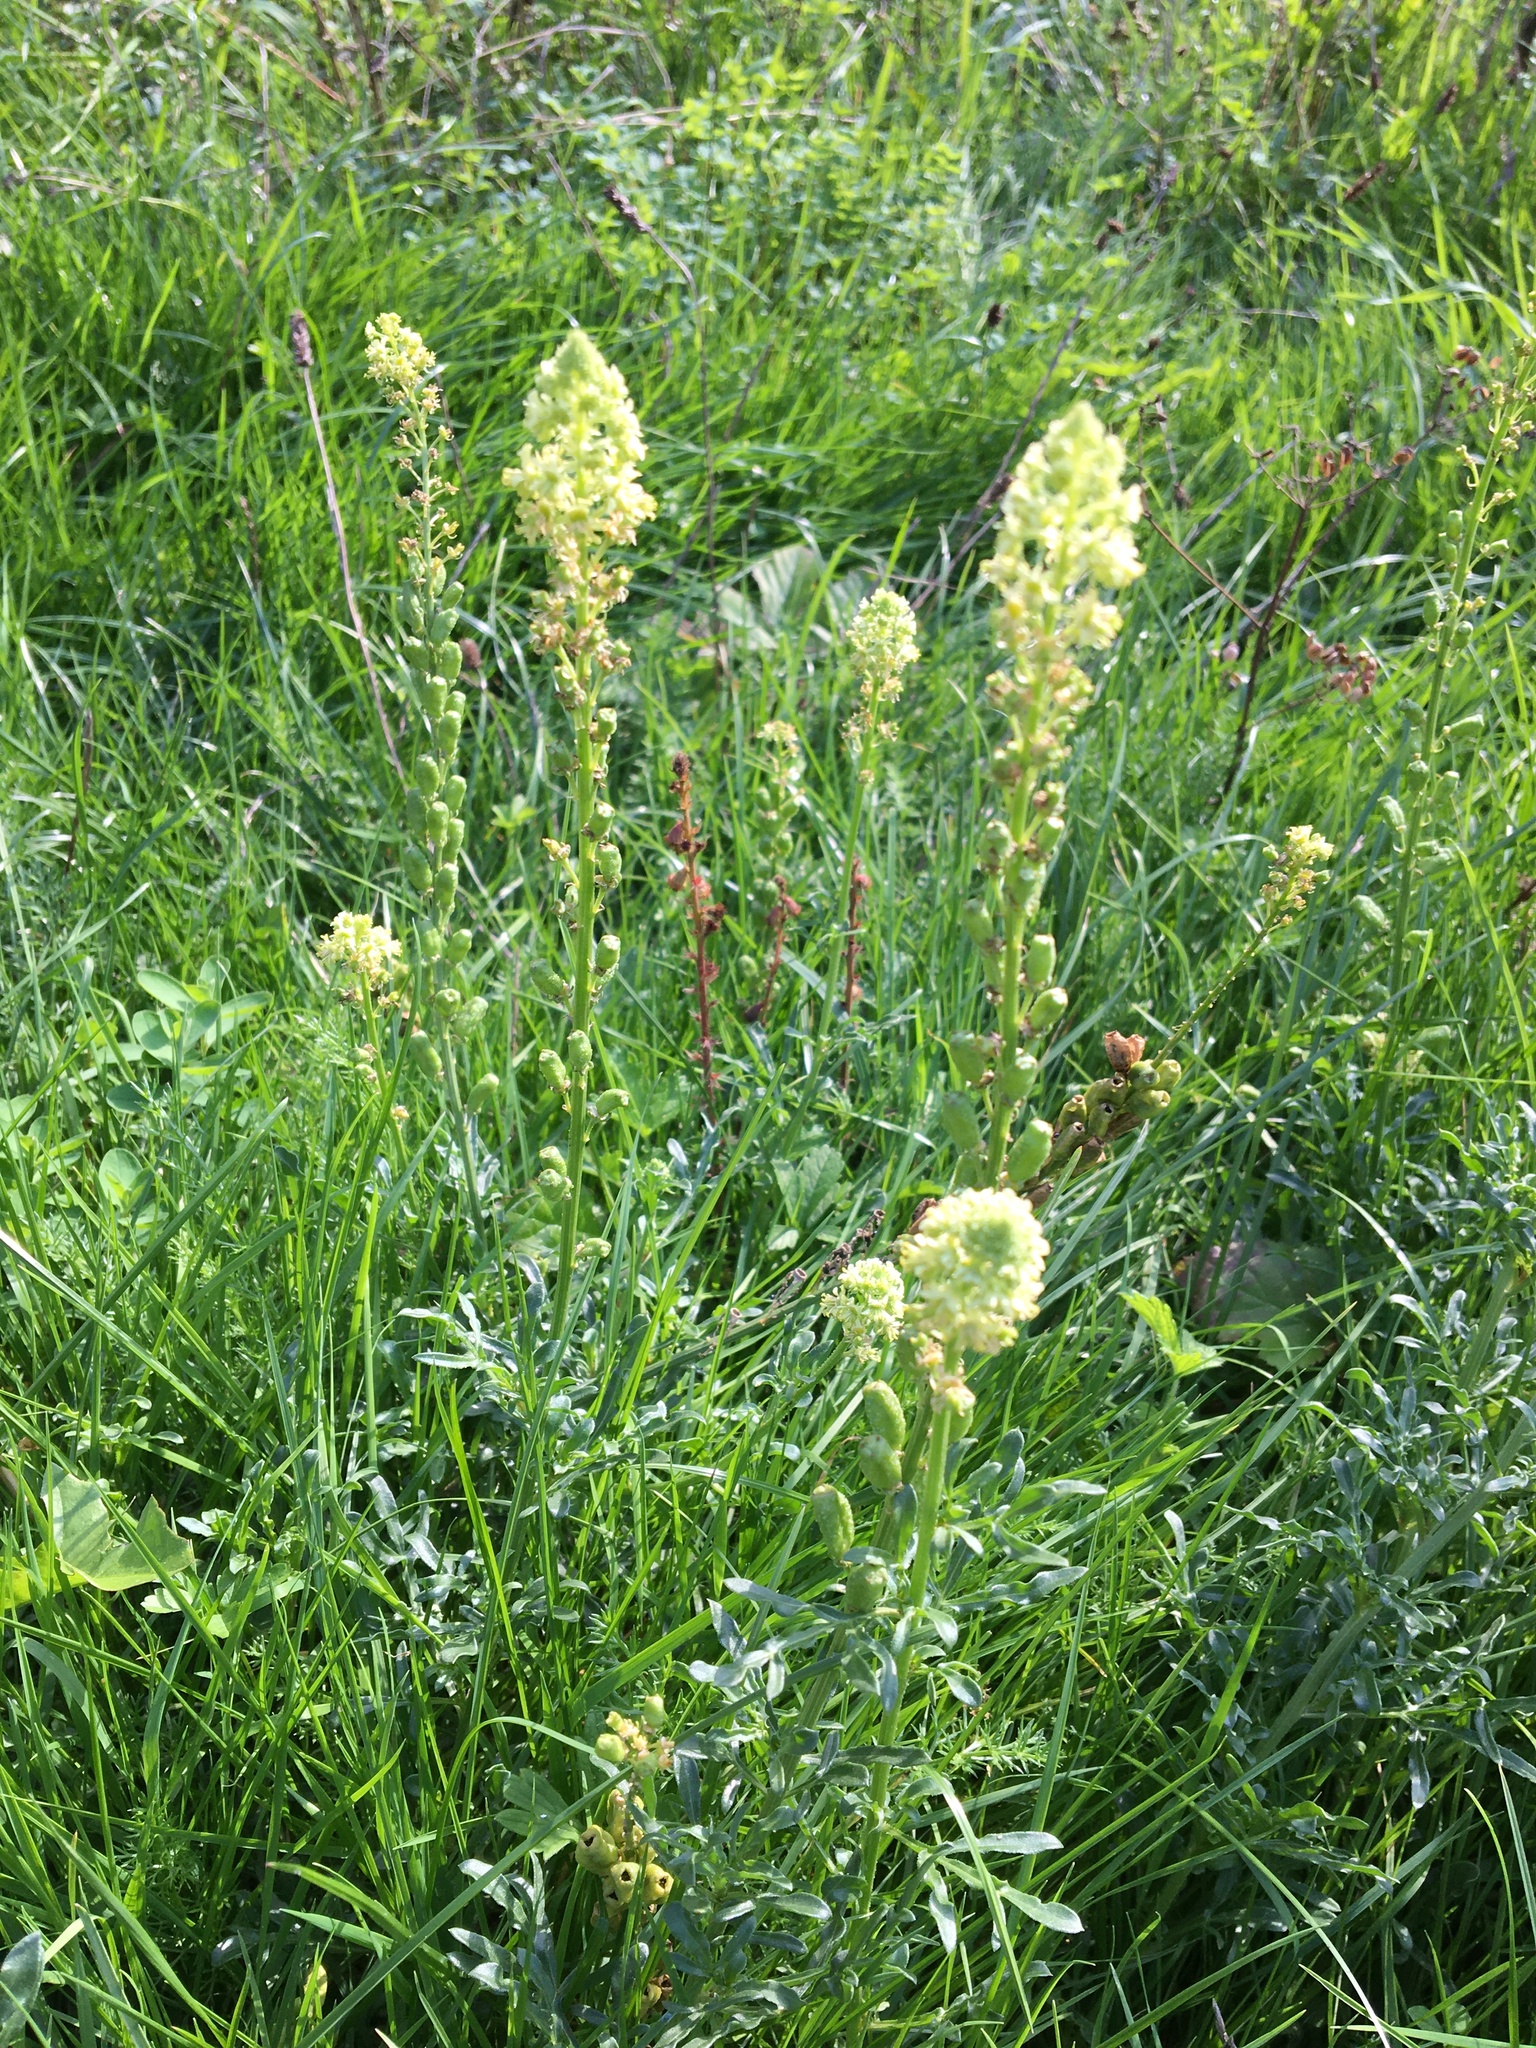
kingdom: Plantae
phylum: Tracheophyta
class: Magnoliopsida
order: Brassicales
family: Resedaceae
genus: Reseda
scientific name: Reseda lutea
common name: Wild mignonette
